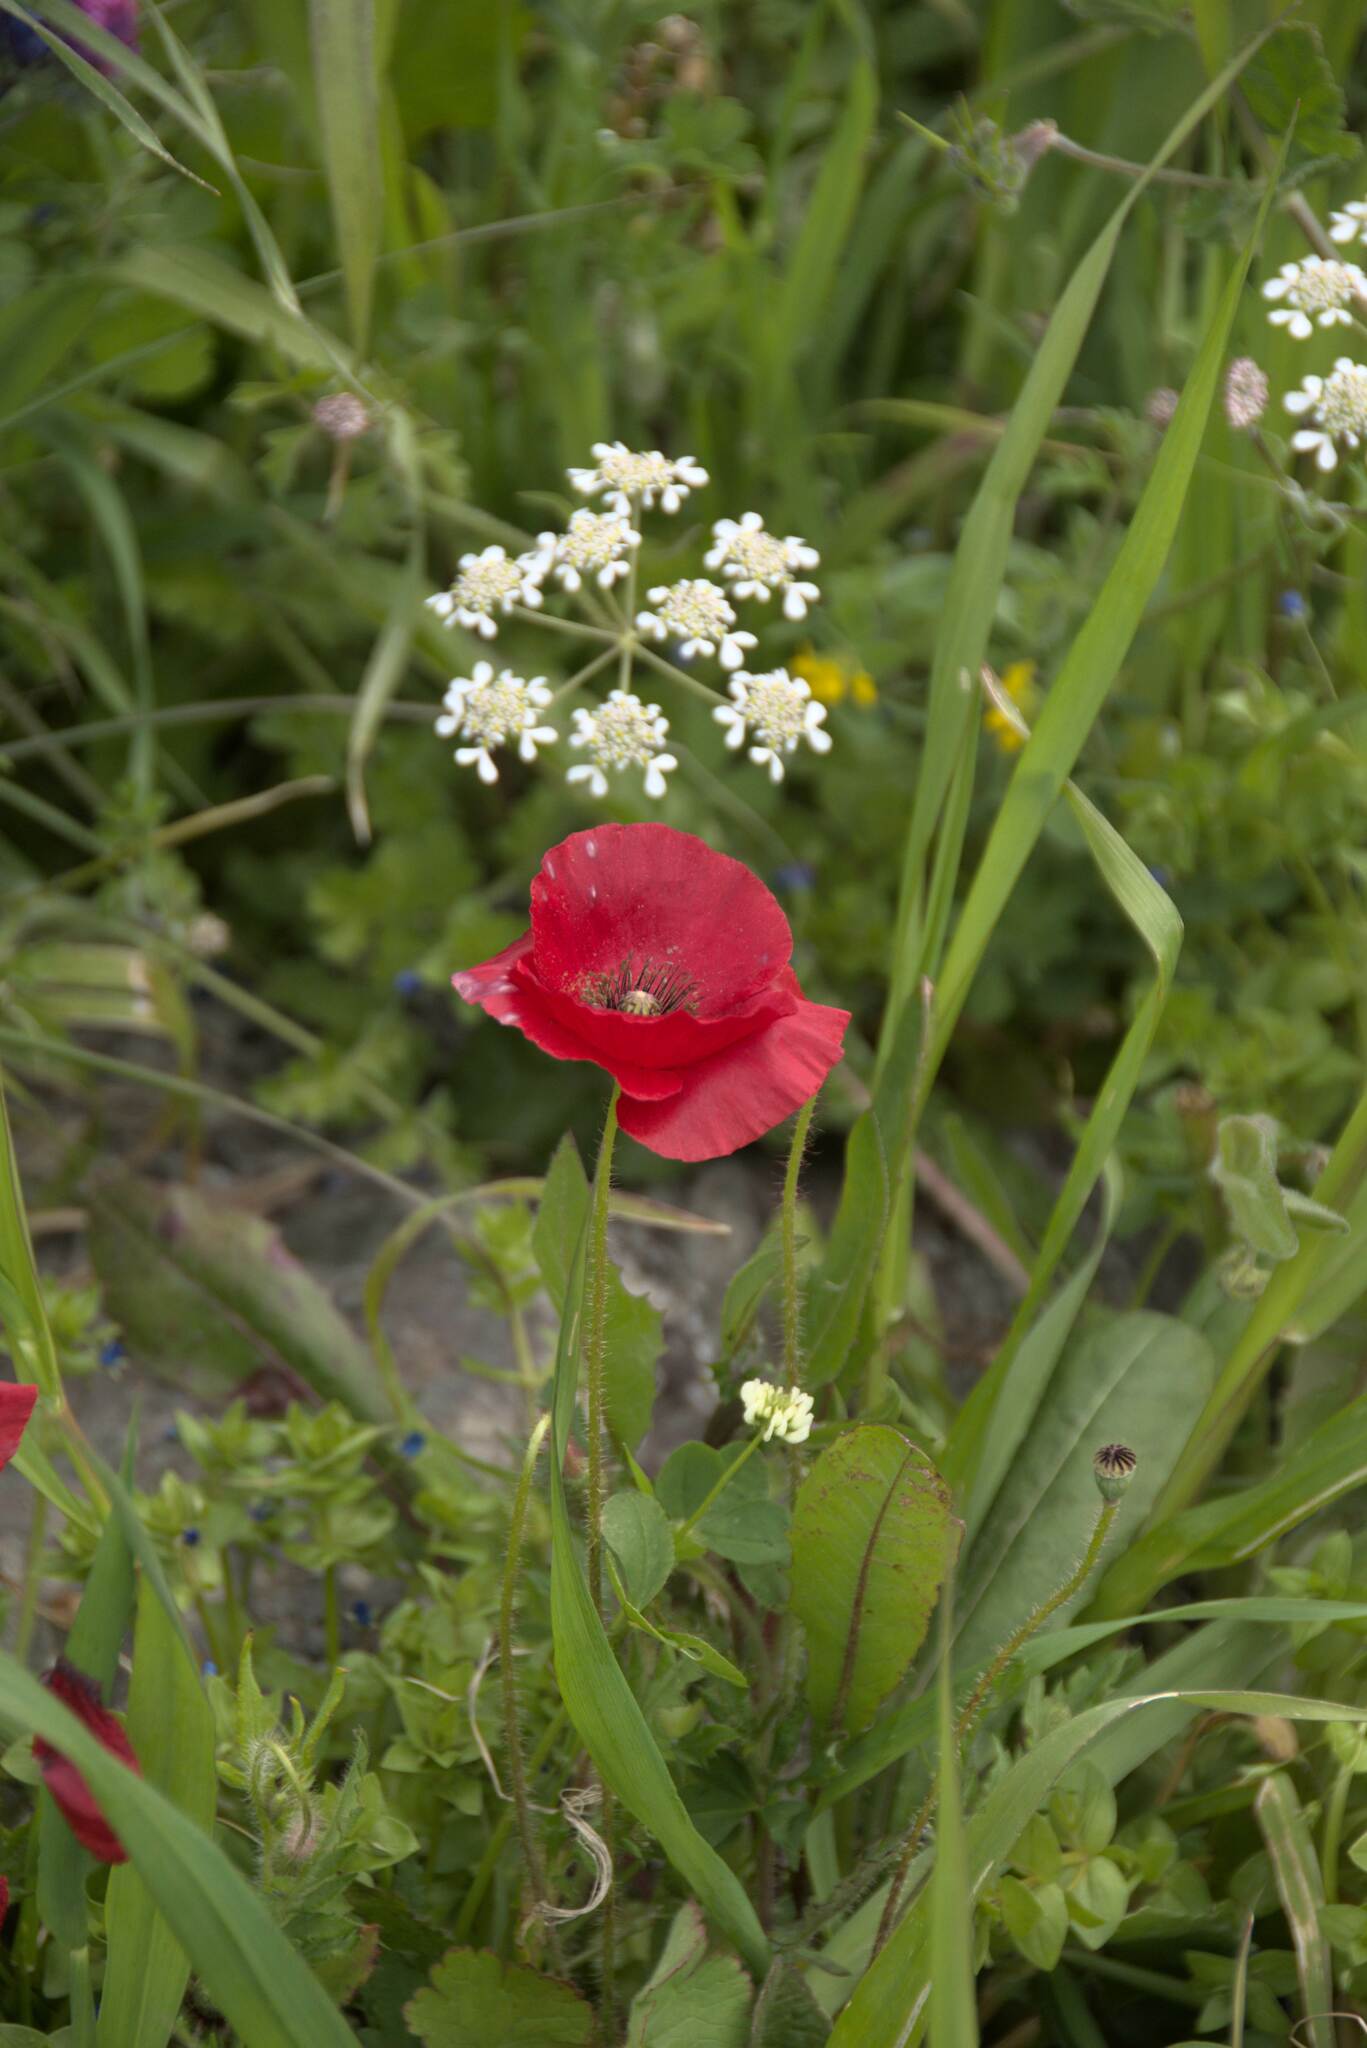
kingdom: Plantae
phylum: Tracheophyta
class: Magnoliopsida
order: Ranunculales
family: Papaveraceae
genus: Papaver
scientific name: Papaver rhoeas
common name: Corn poppy
